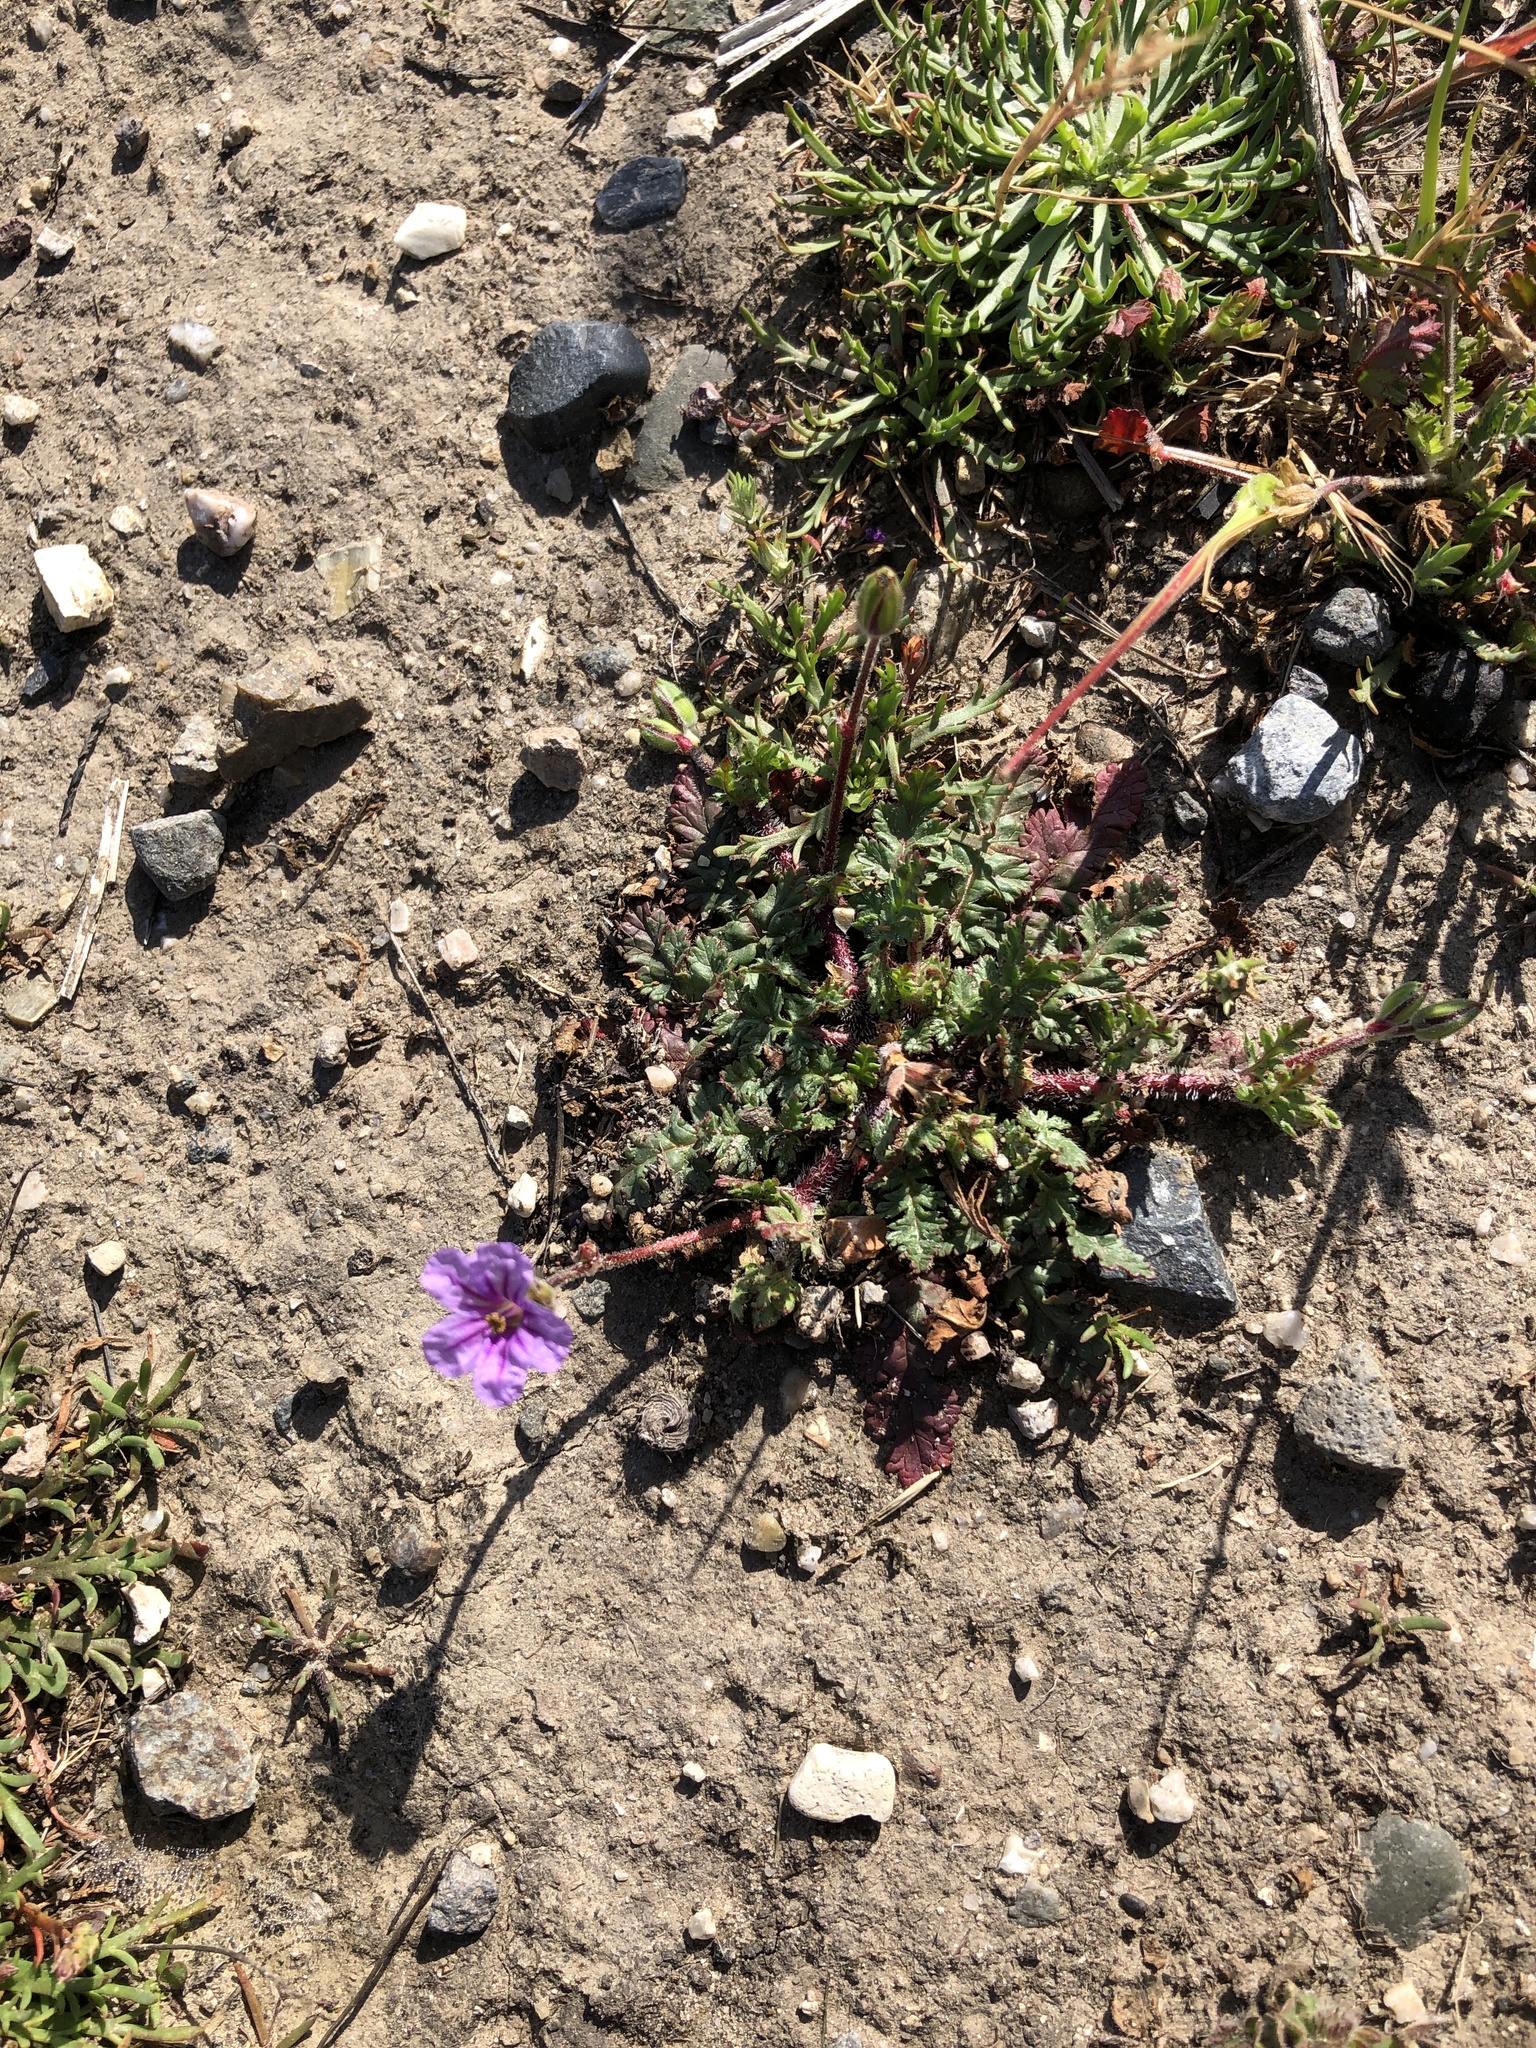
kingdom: Plantae
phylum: Tracheophyta
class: Magnoliopsida
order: Geraniales
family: Geraniaceae
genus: Erodium
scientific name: Erodium botrys
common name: Mediterranean stork's-bill
